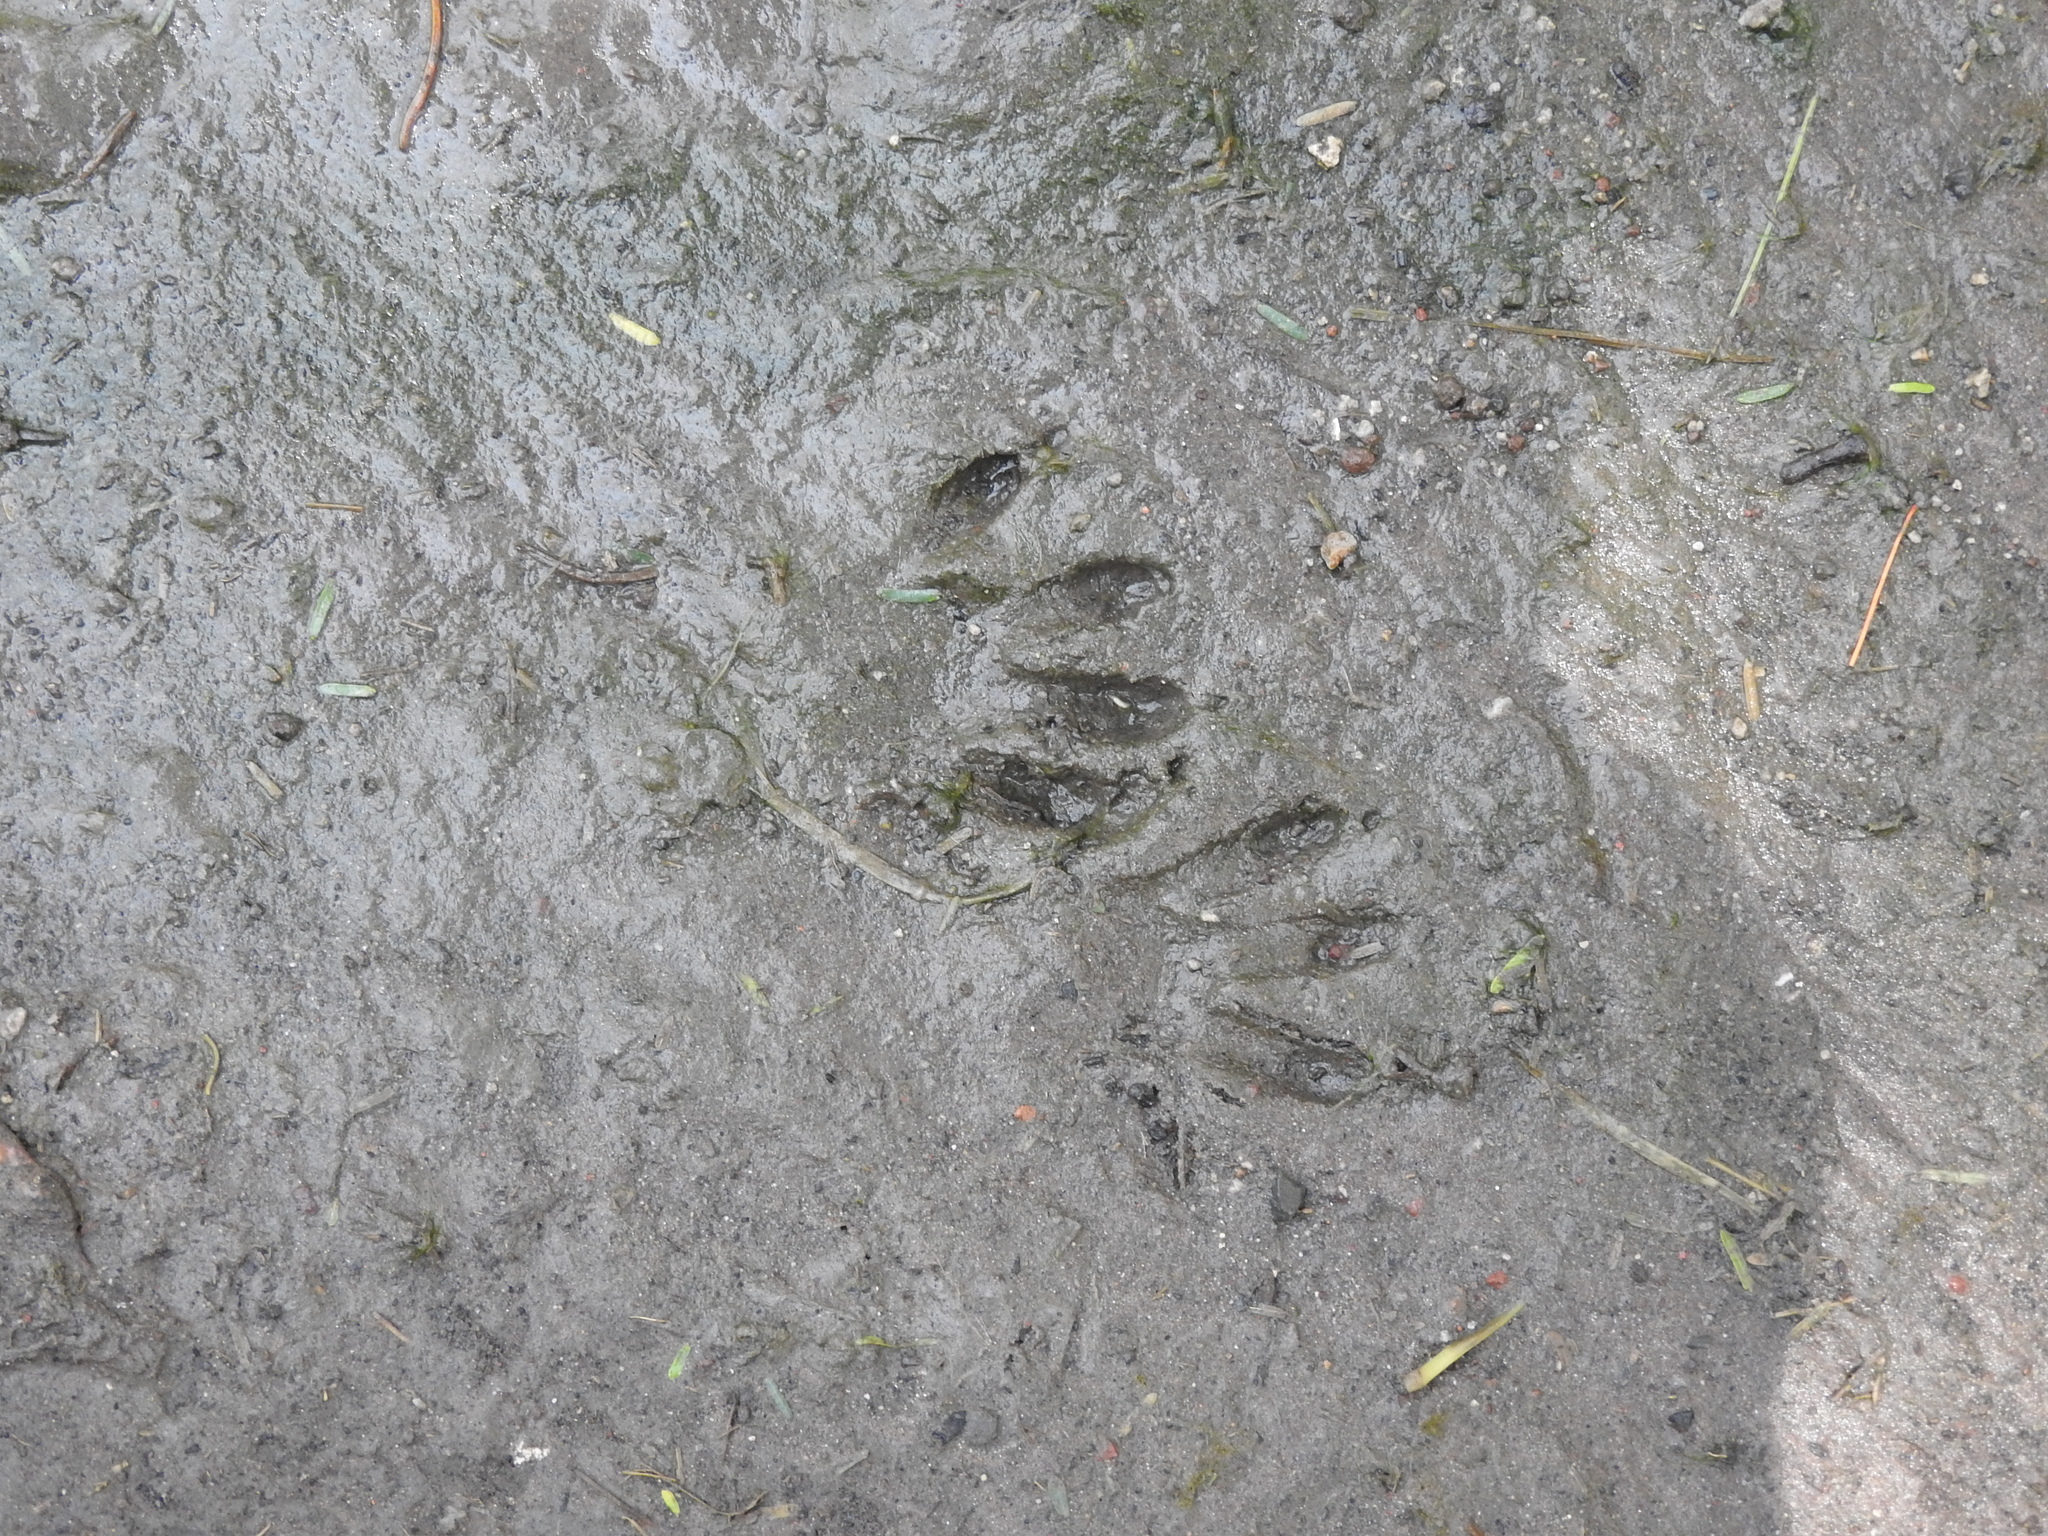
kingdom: Animalia
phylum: Chordata
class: Mammalia
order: Carnivora
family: Procyonidae
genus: Procyon
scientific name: Procyon lotor
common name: Raccoon
